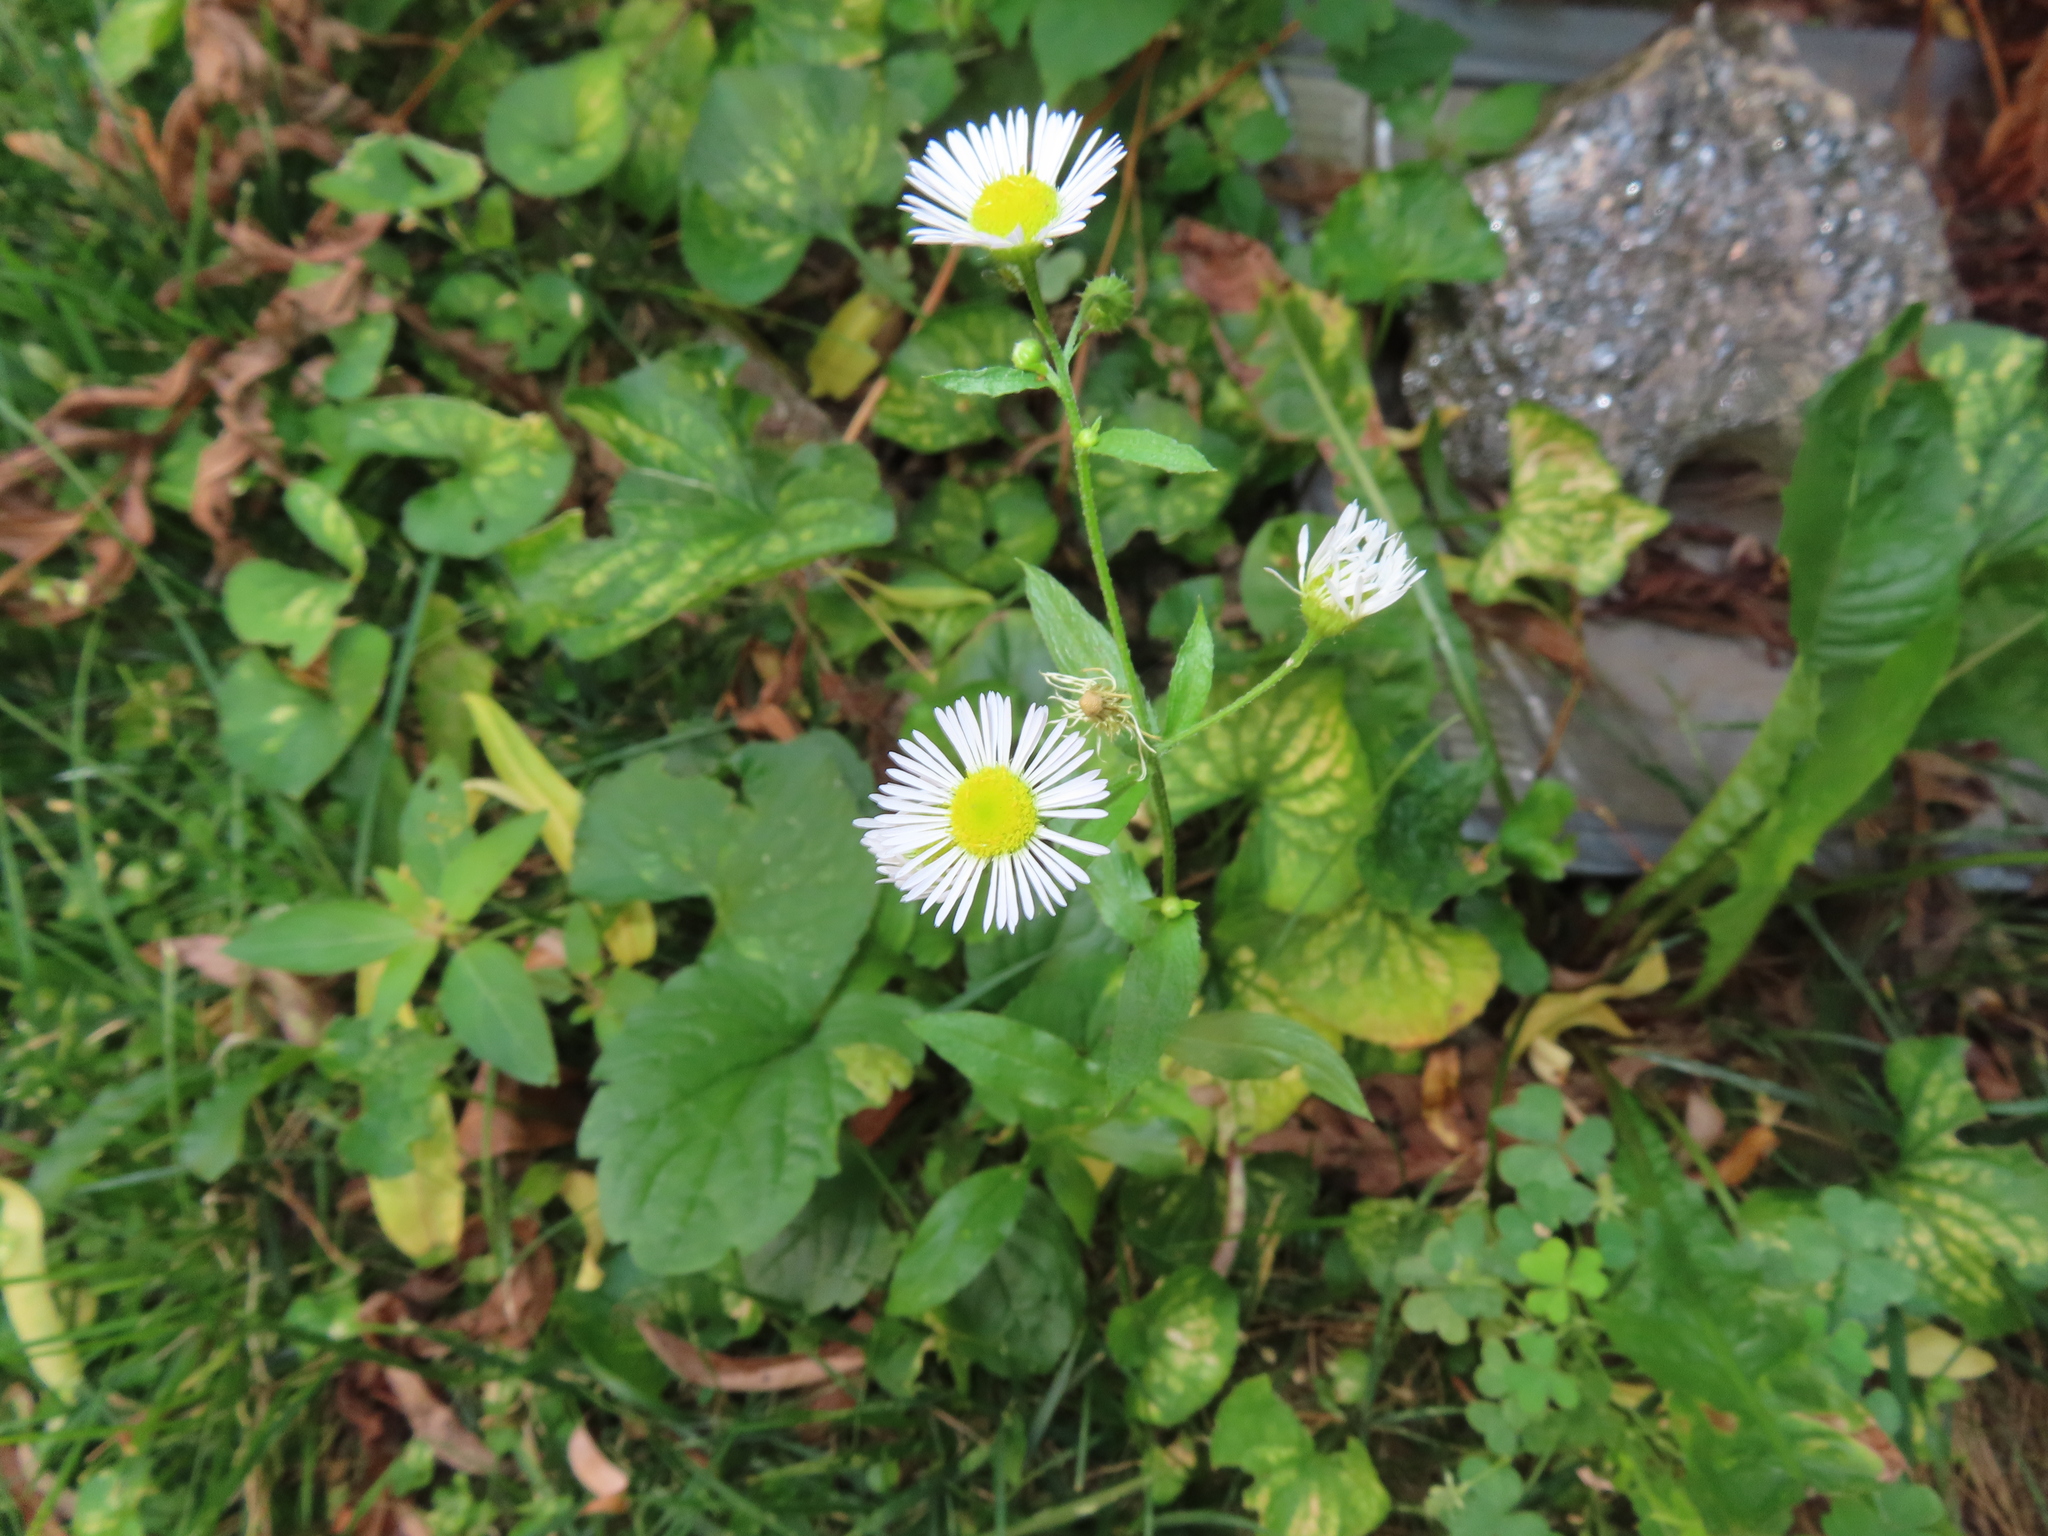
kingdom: Plantae
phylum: Tracheophyta
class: Magnoliopsida
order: Asterales
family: Asteraceae
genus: Erigeron
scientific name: Erigeron annuus
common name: Tall fleabane
